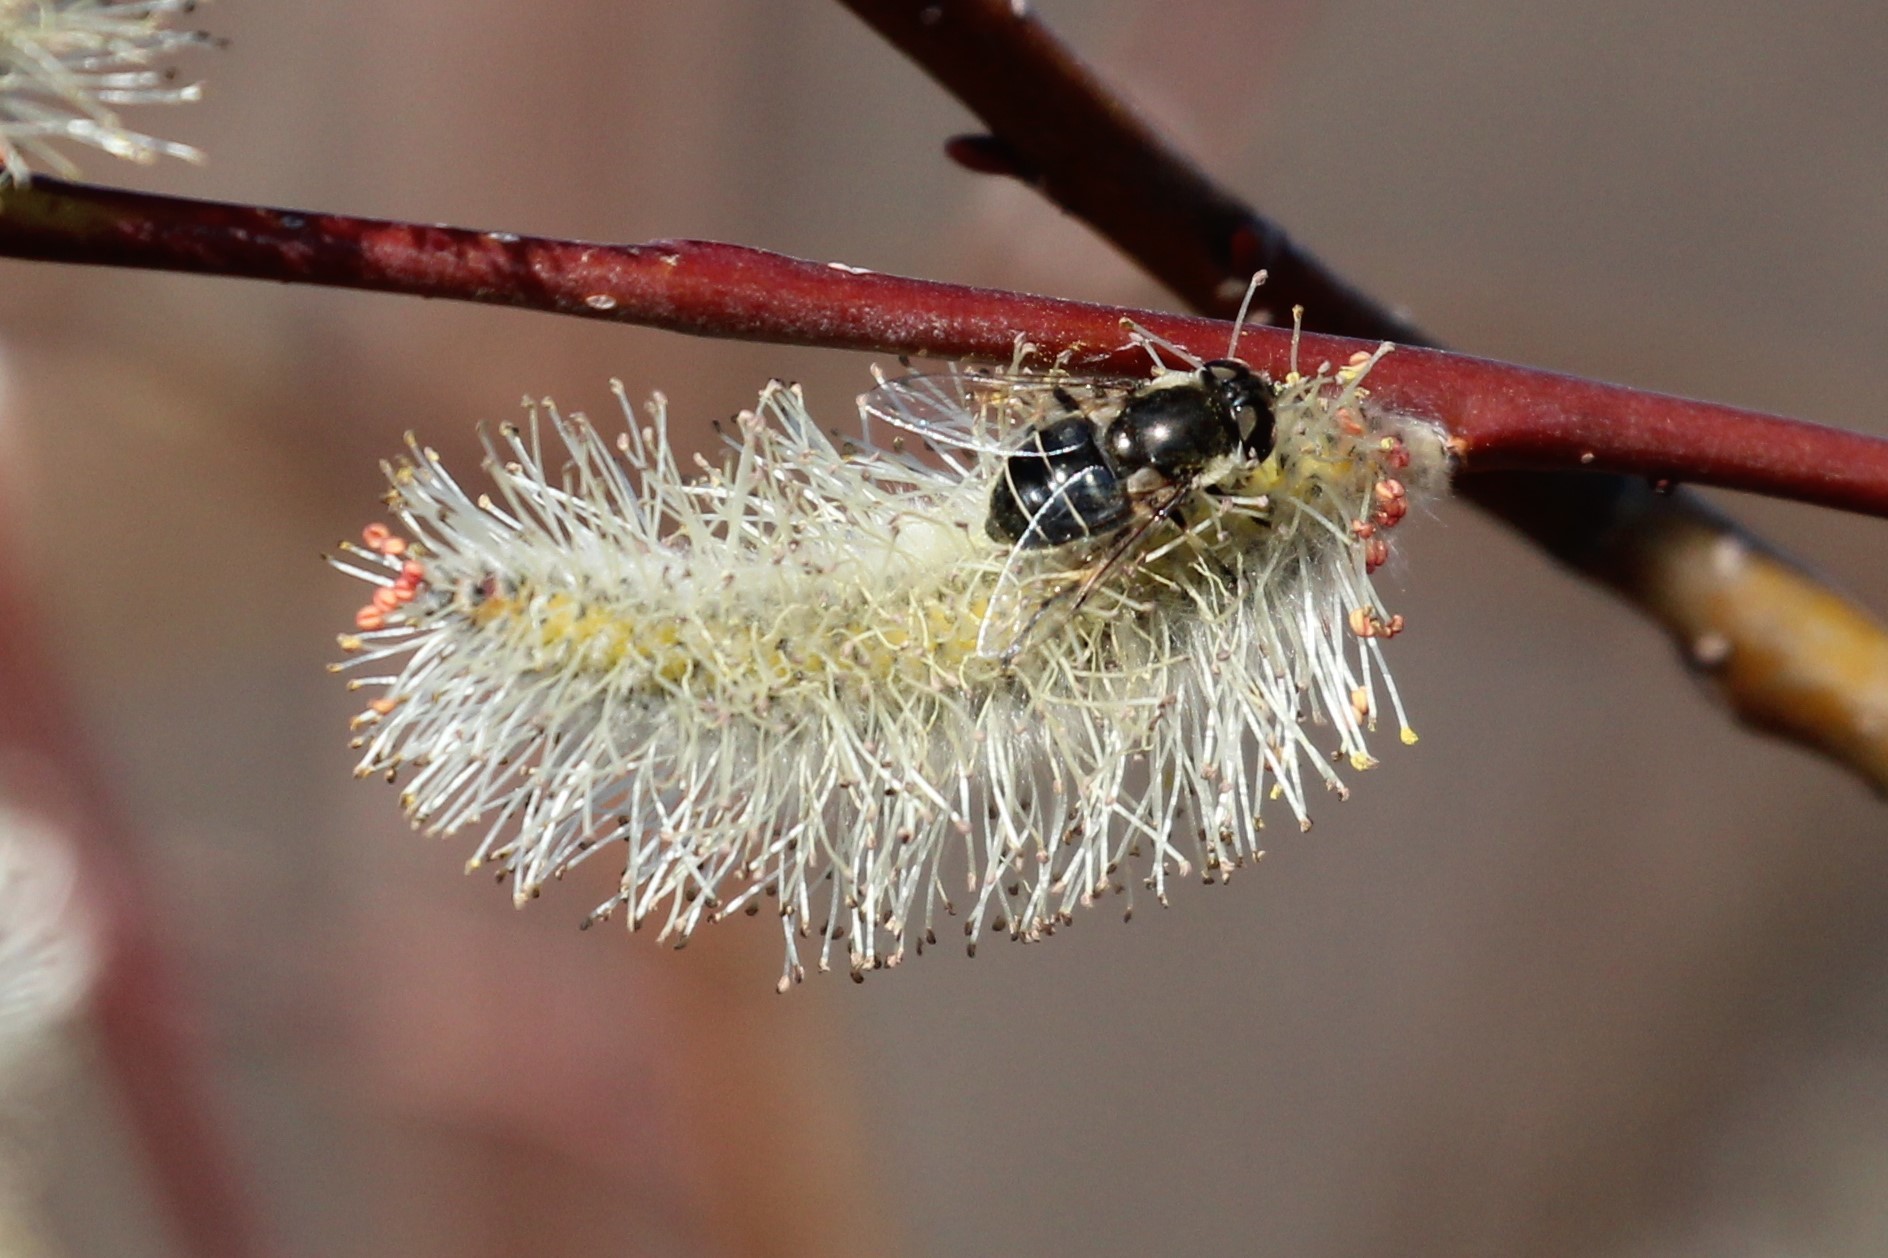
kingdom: Animalia
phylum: Arthropoda
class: Insecta
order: Diptera
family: Syrphidae
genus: Eristalis
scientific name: Eristalis dimidiata
